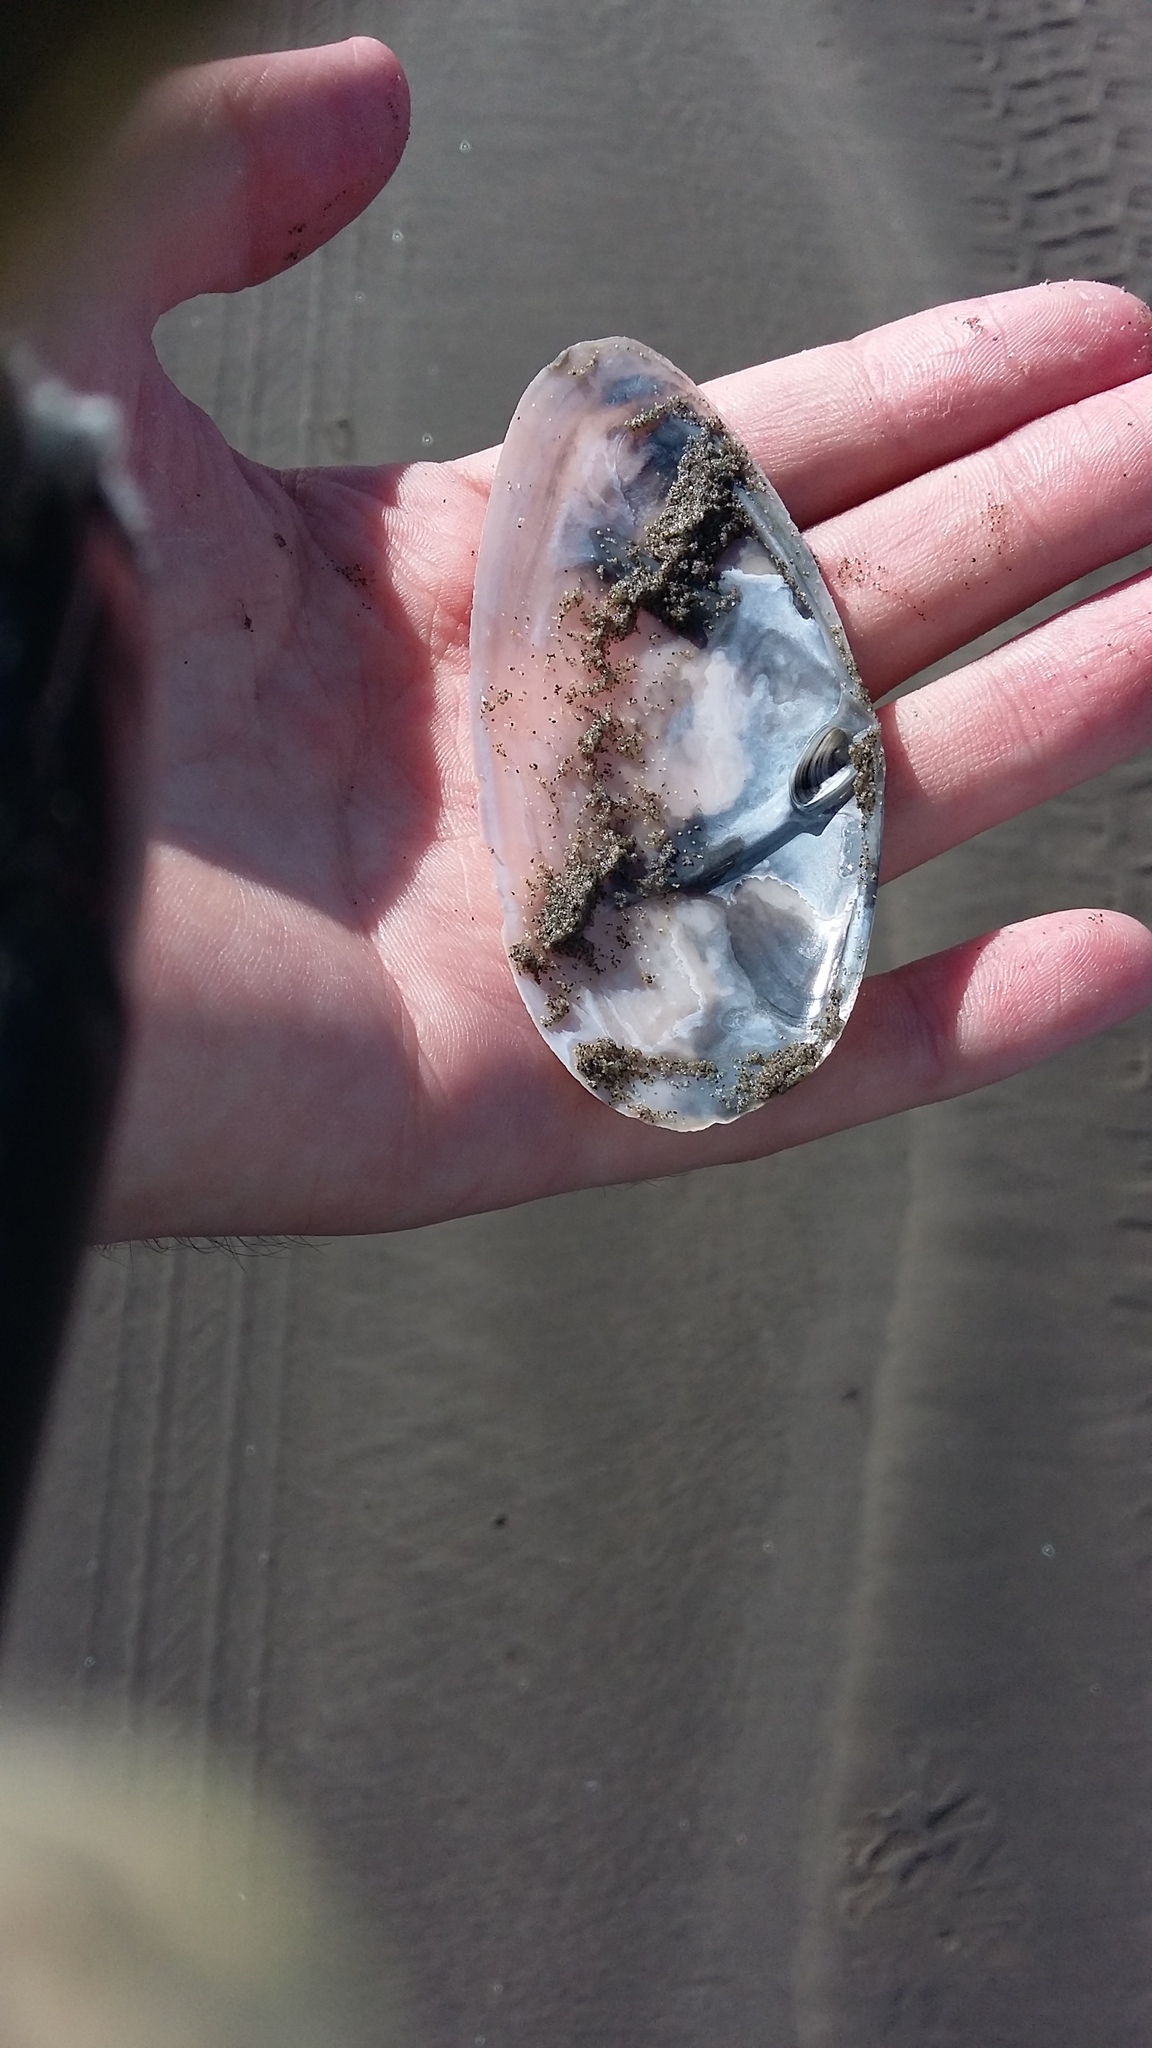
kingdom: Animalia
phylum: Mollusca
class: Bivalvia
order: Venerida
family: Mactridae
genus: Resania
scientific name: Resania lanceolata
